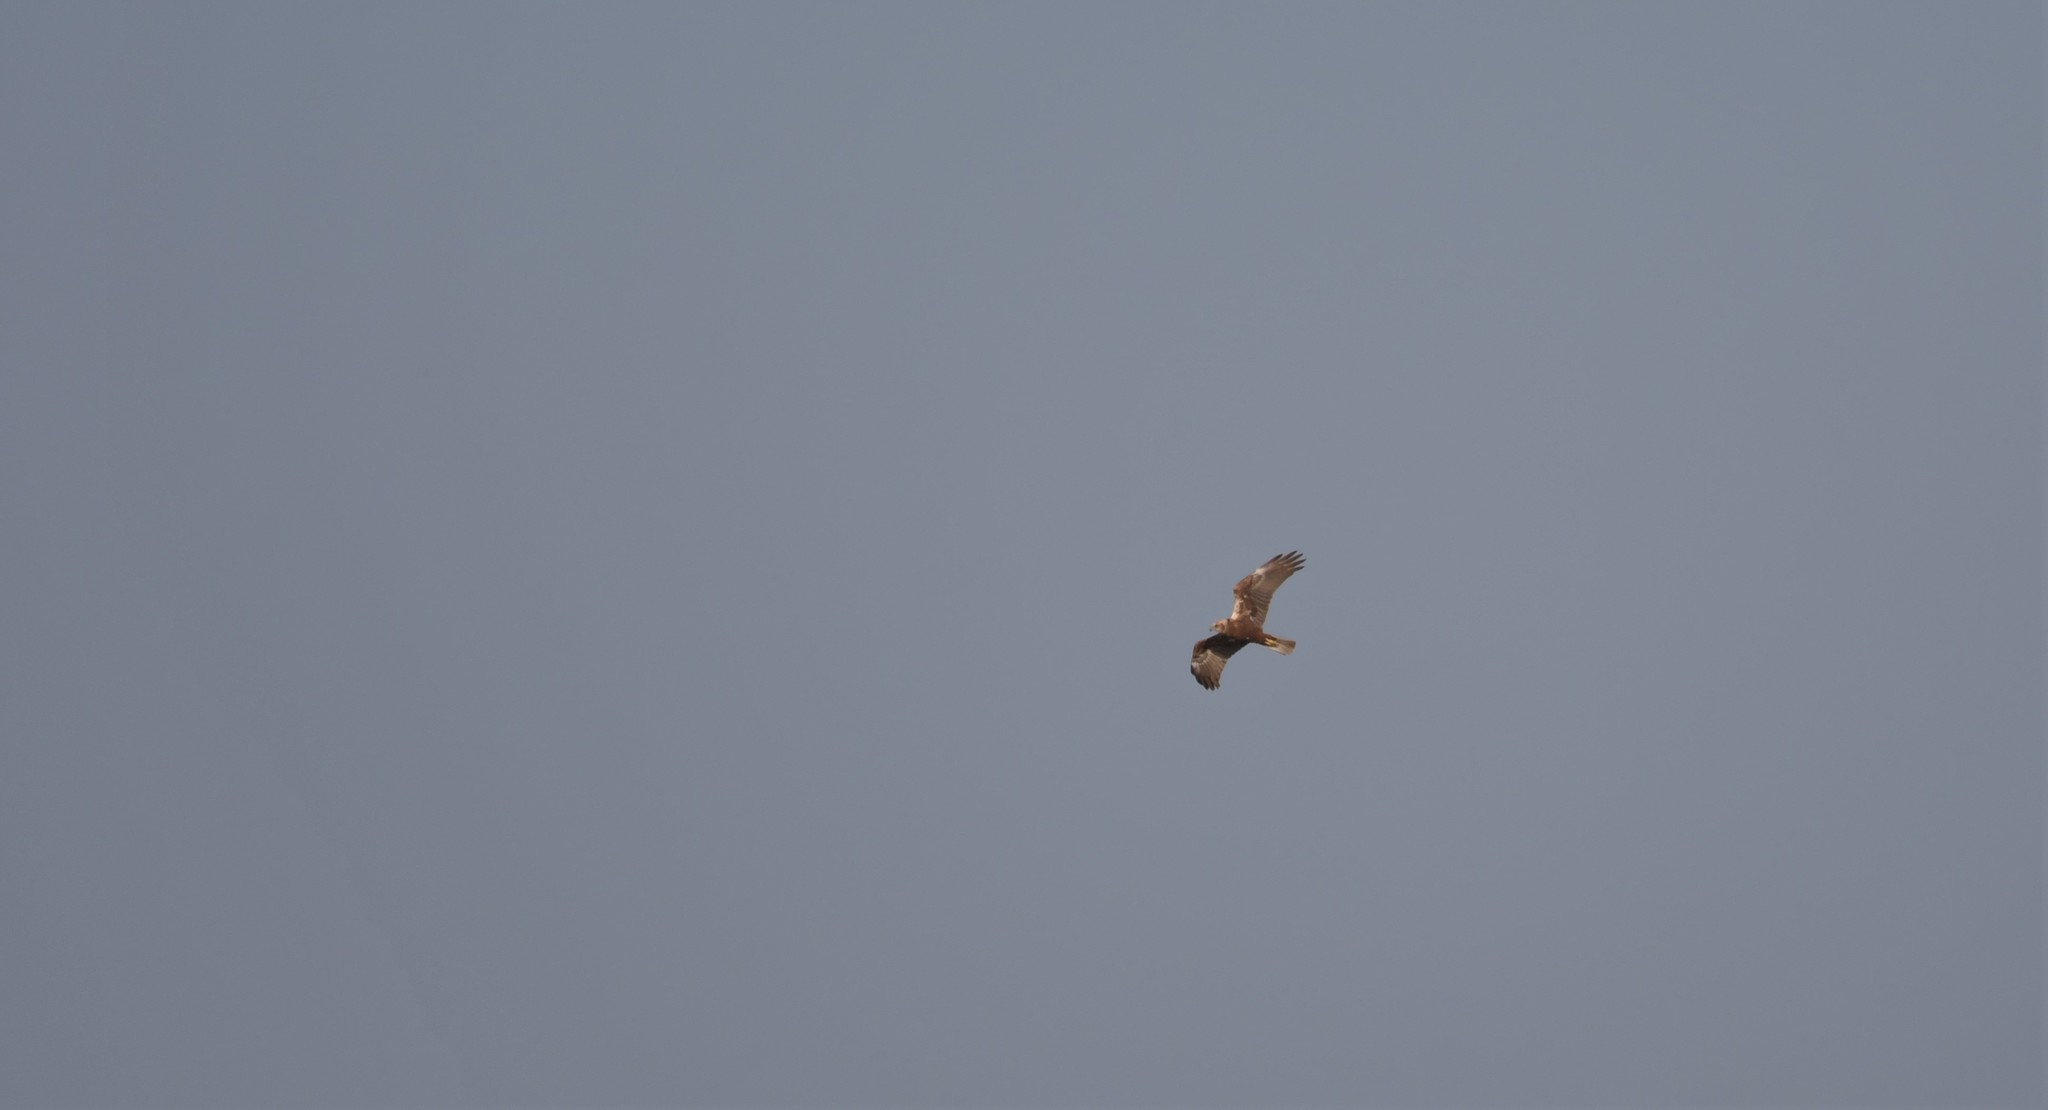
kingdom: Animalia
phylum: Chordata
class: Aves
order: Accipitriformes
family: Accipitridae
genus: Circus
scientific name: Circus aeruginosus
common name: Western marsh harrier
